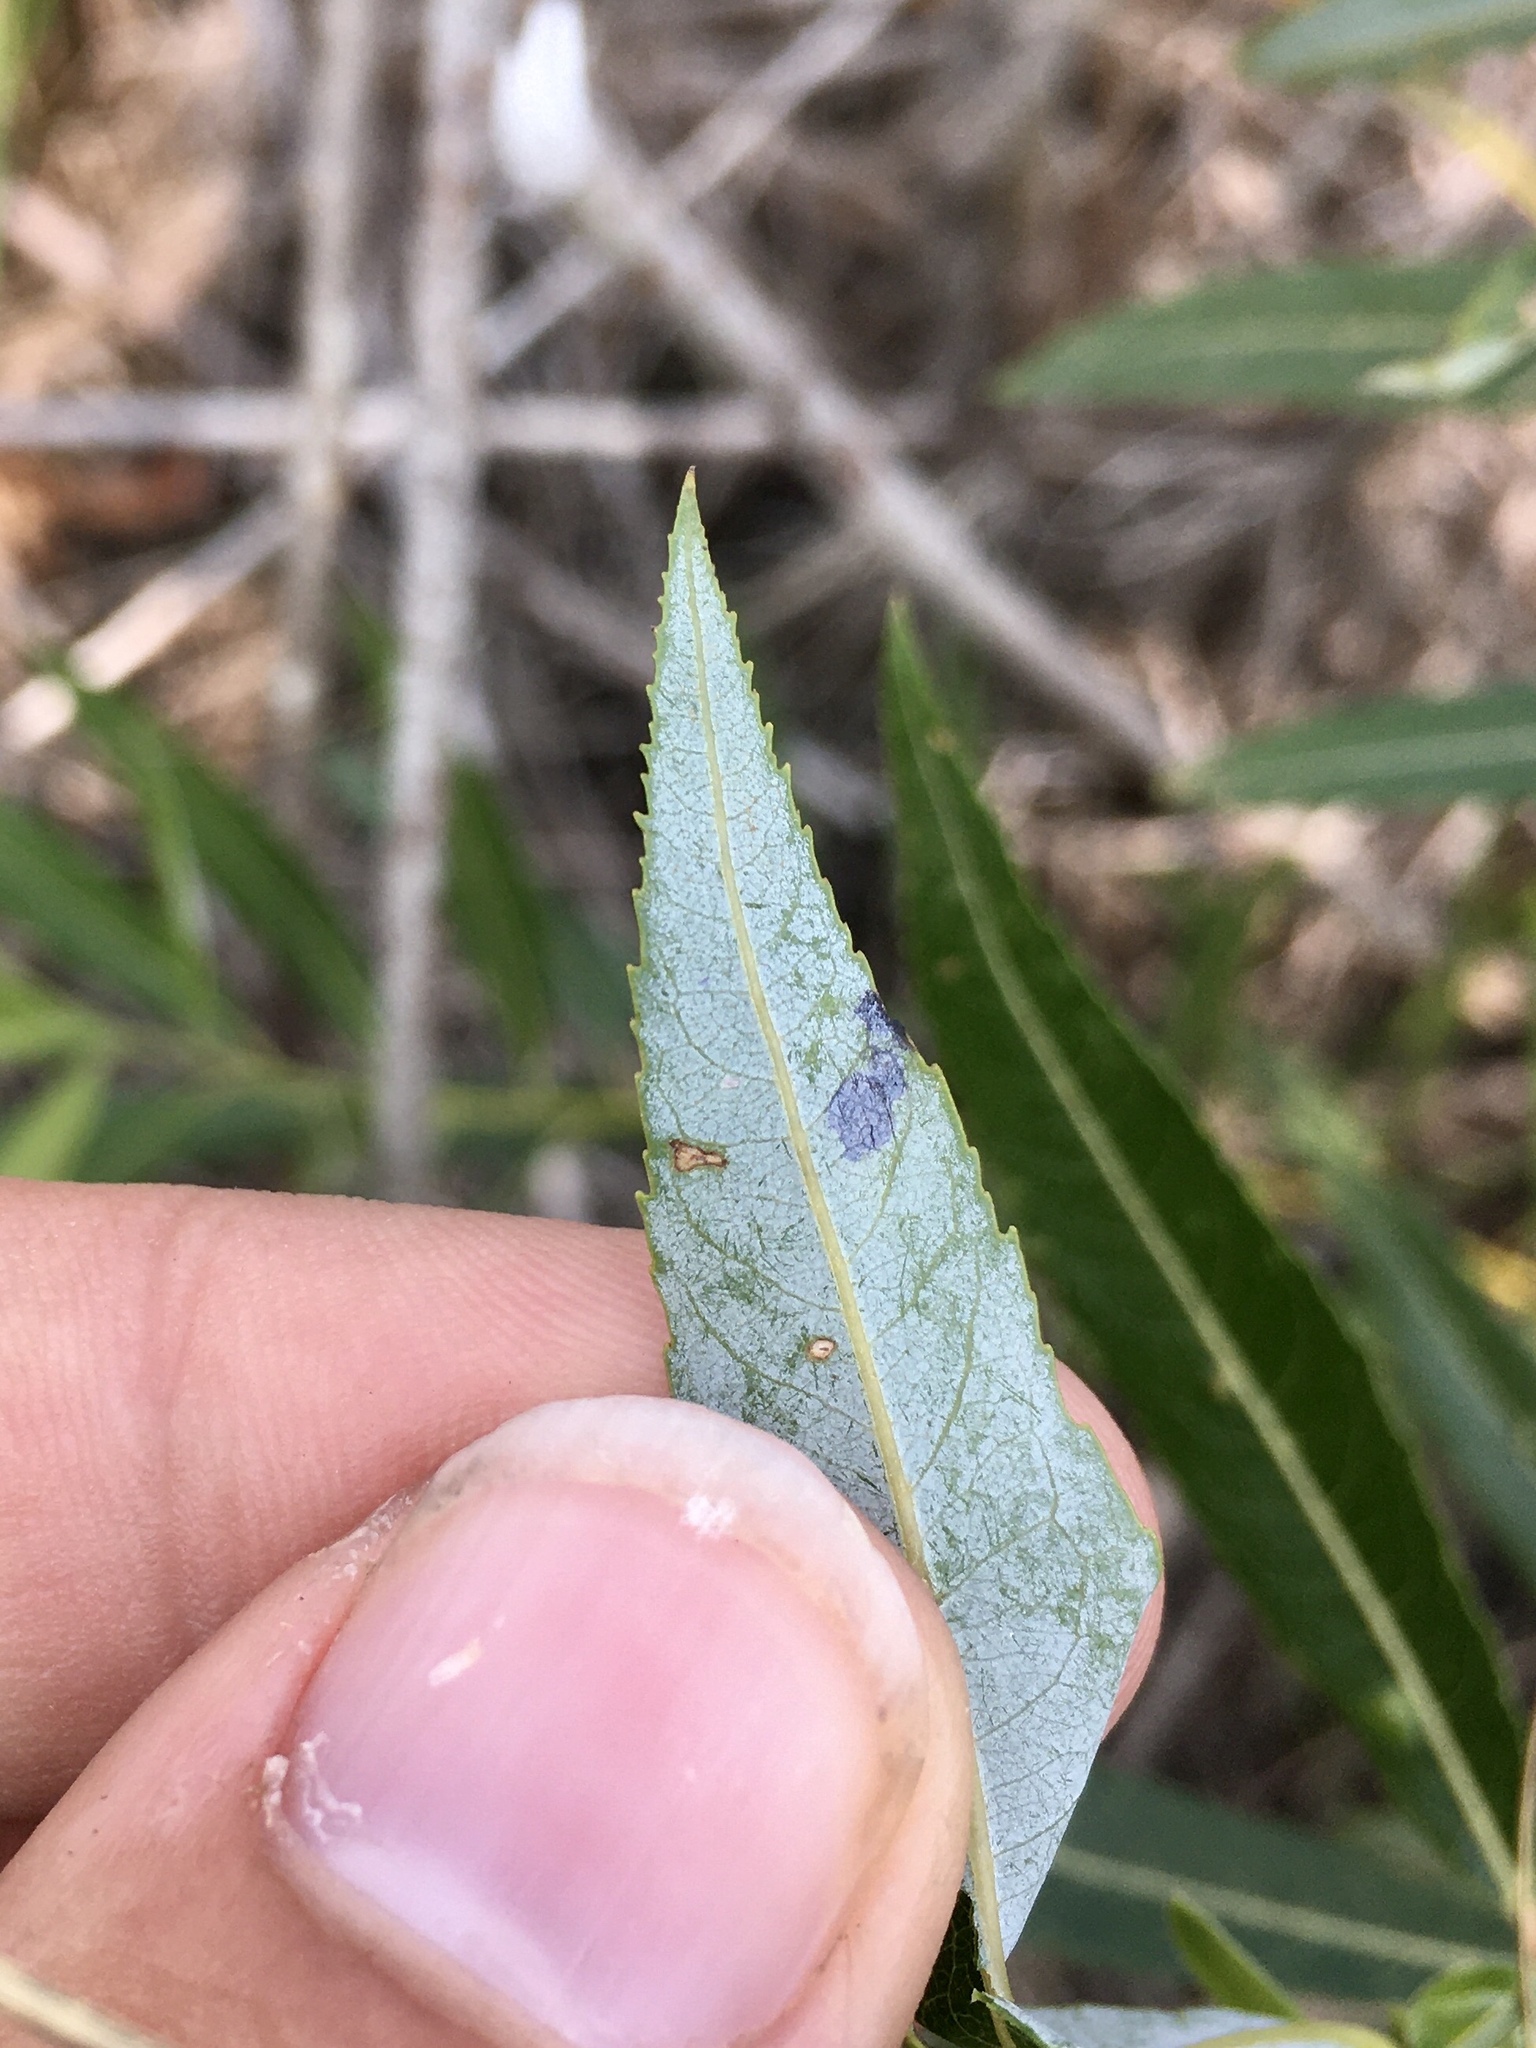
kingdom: Animalia
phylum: Arthropoda
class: Insecta
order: Lepidoptera
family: Gracillariidae
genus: Caloptilia
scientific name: Caloptilia stigmatella
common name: White-triangle slender
